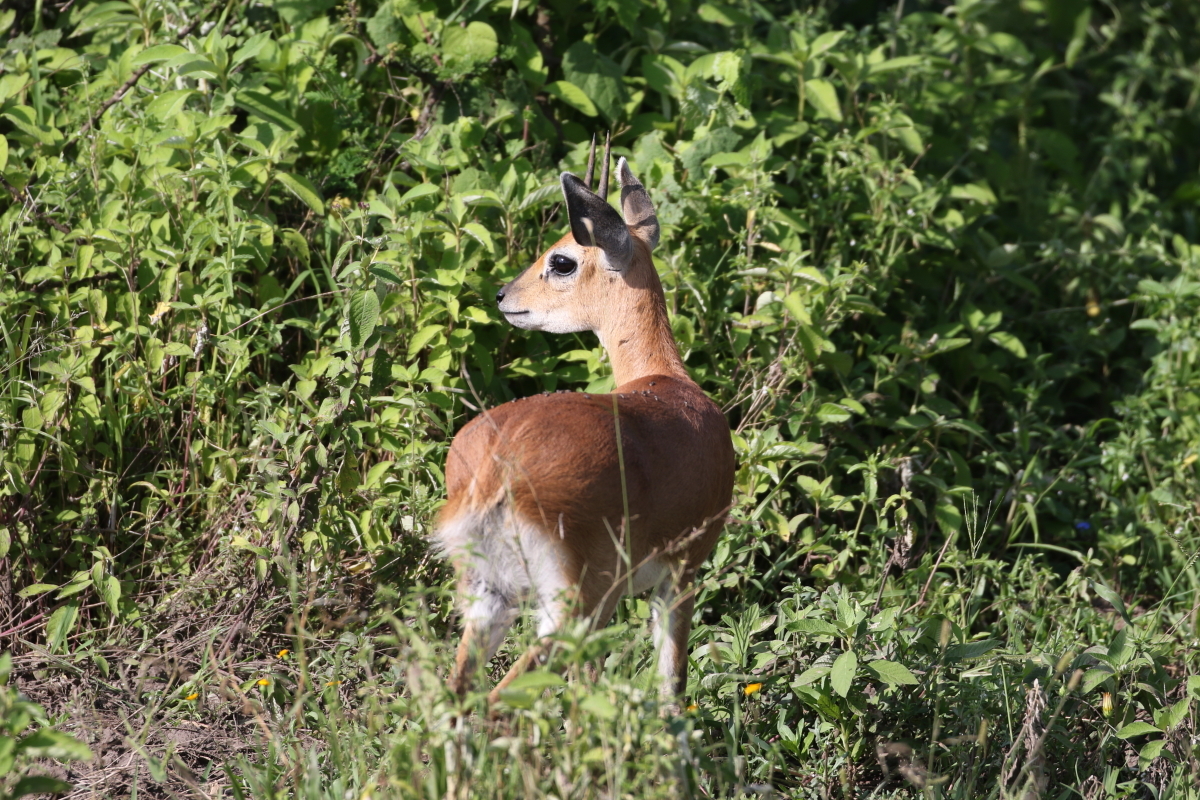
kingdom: Animalia
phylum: Chordata
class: Mammalia
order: Artiodactyla
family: Bovidae
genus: Raphicerus
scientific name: Raphicerus campestris
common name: Steenbok
